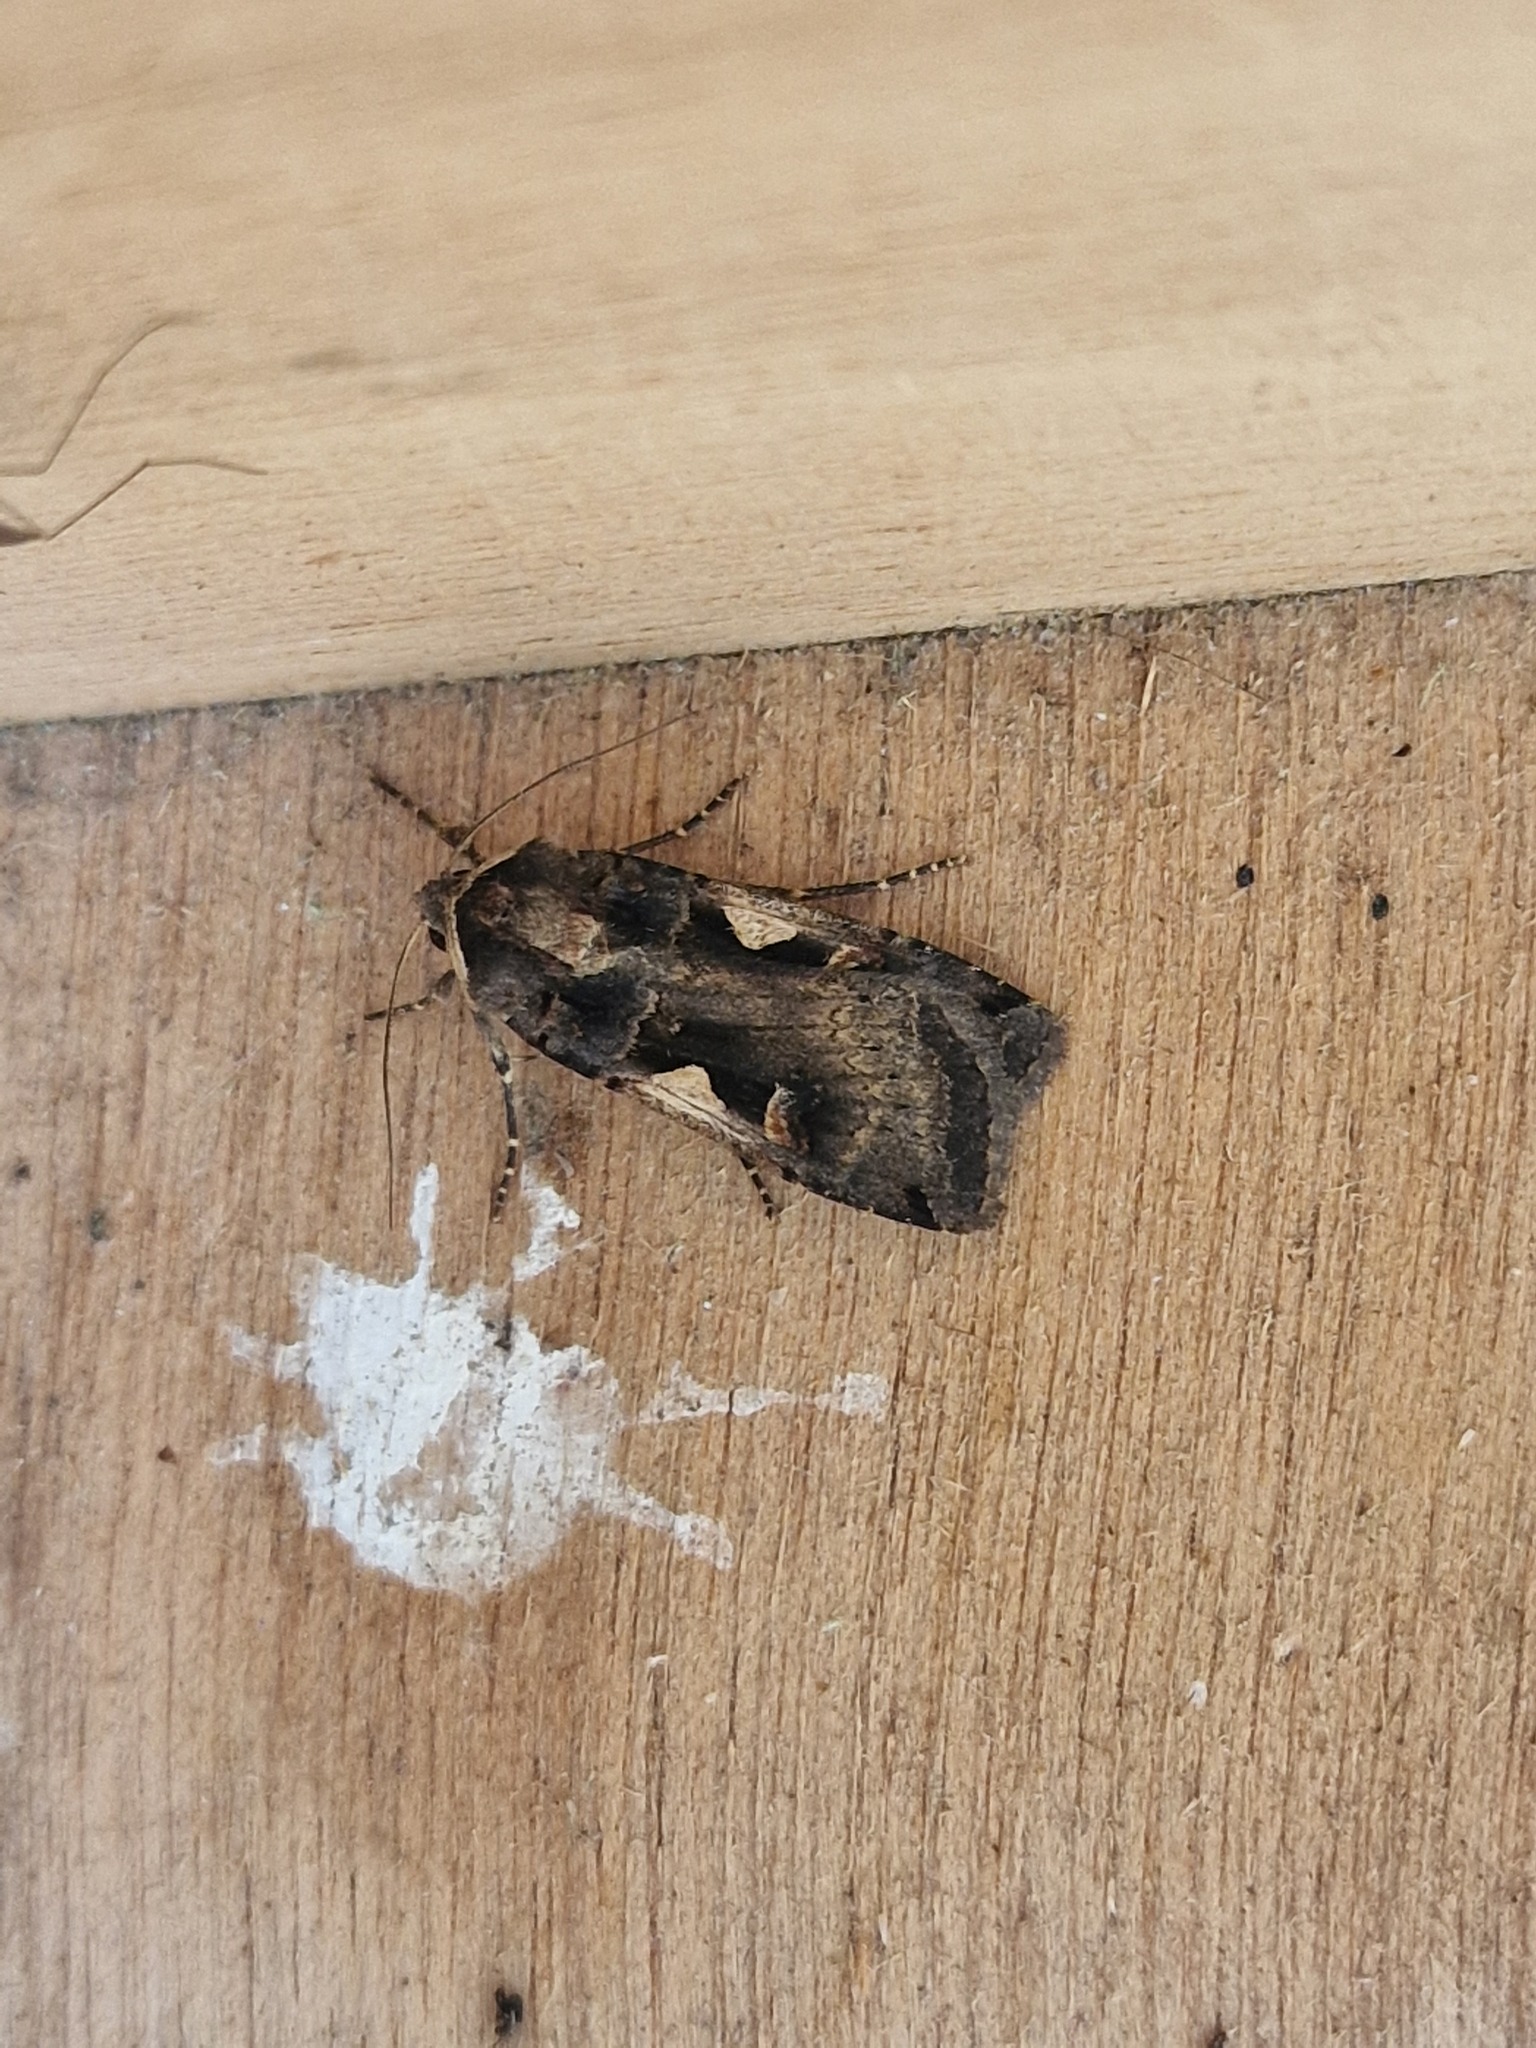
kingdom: Animalia
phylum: Arthropoda
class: Insecta
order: Lepidoptera
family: Noctuidae
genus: Xestia
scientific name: Xestia c-nigrum
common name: Setaceous hebrew character
